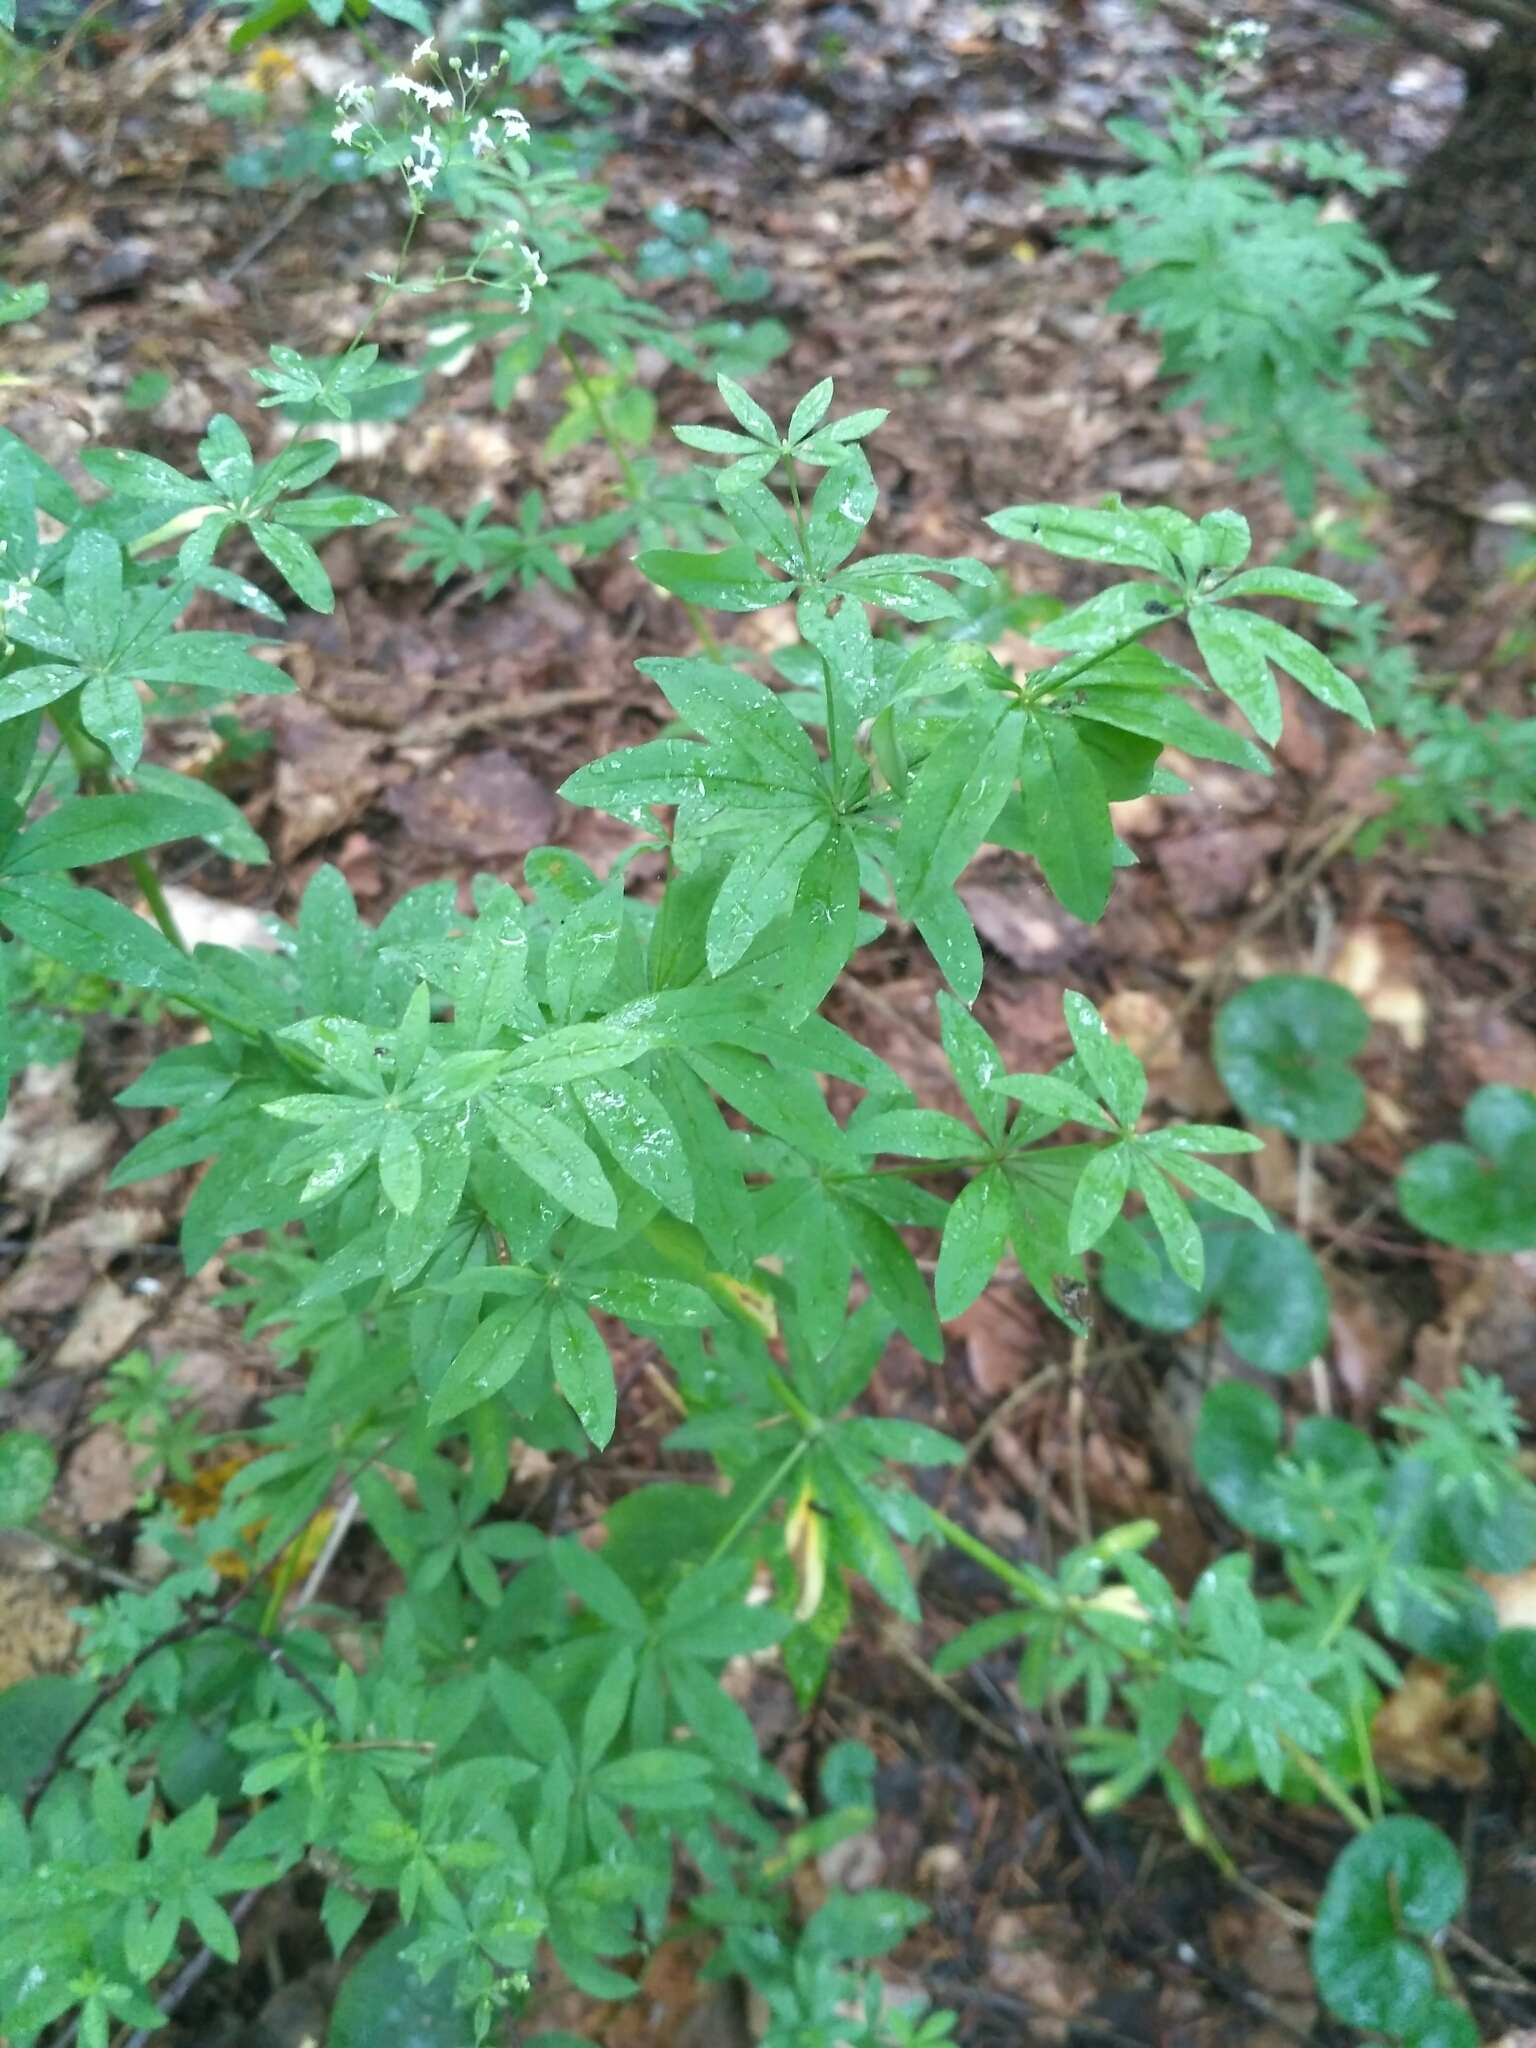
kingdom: Plantae
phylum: Tracheophyta
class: Magnoliopsida
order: Gentianales
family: Rubiaceae
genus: Galium
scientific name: Galium intermedium
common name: Bedstraw
